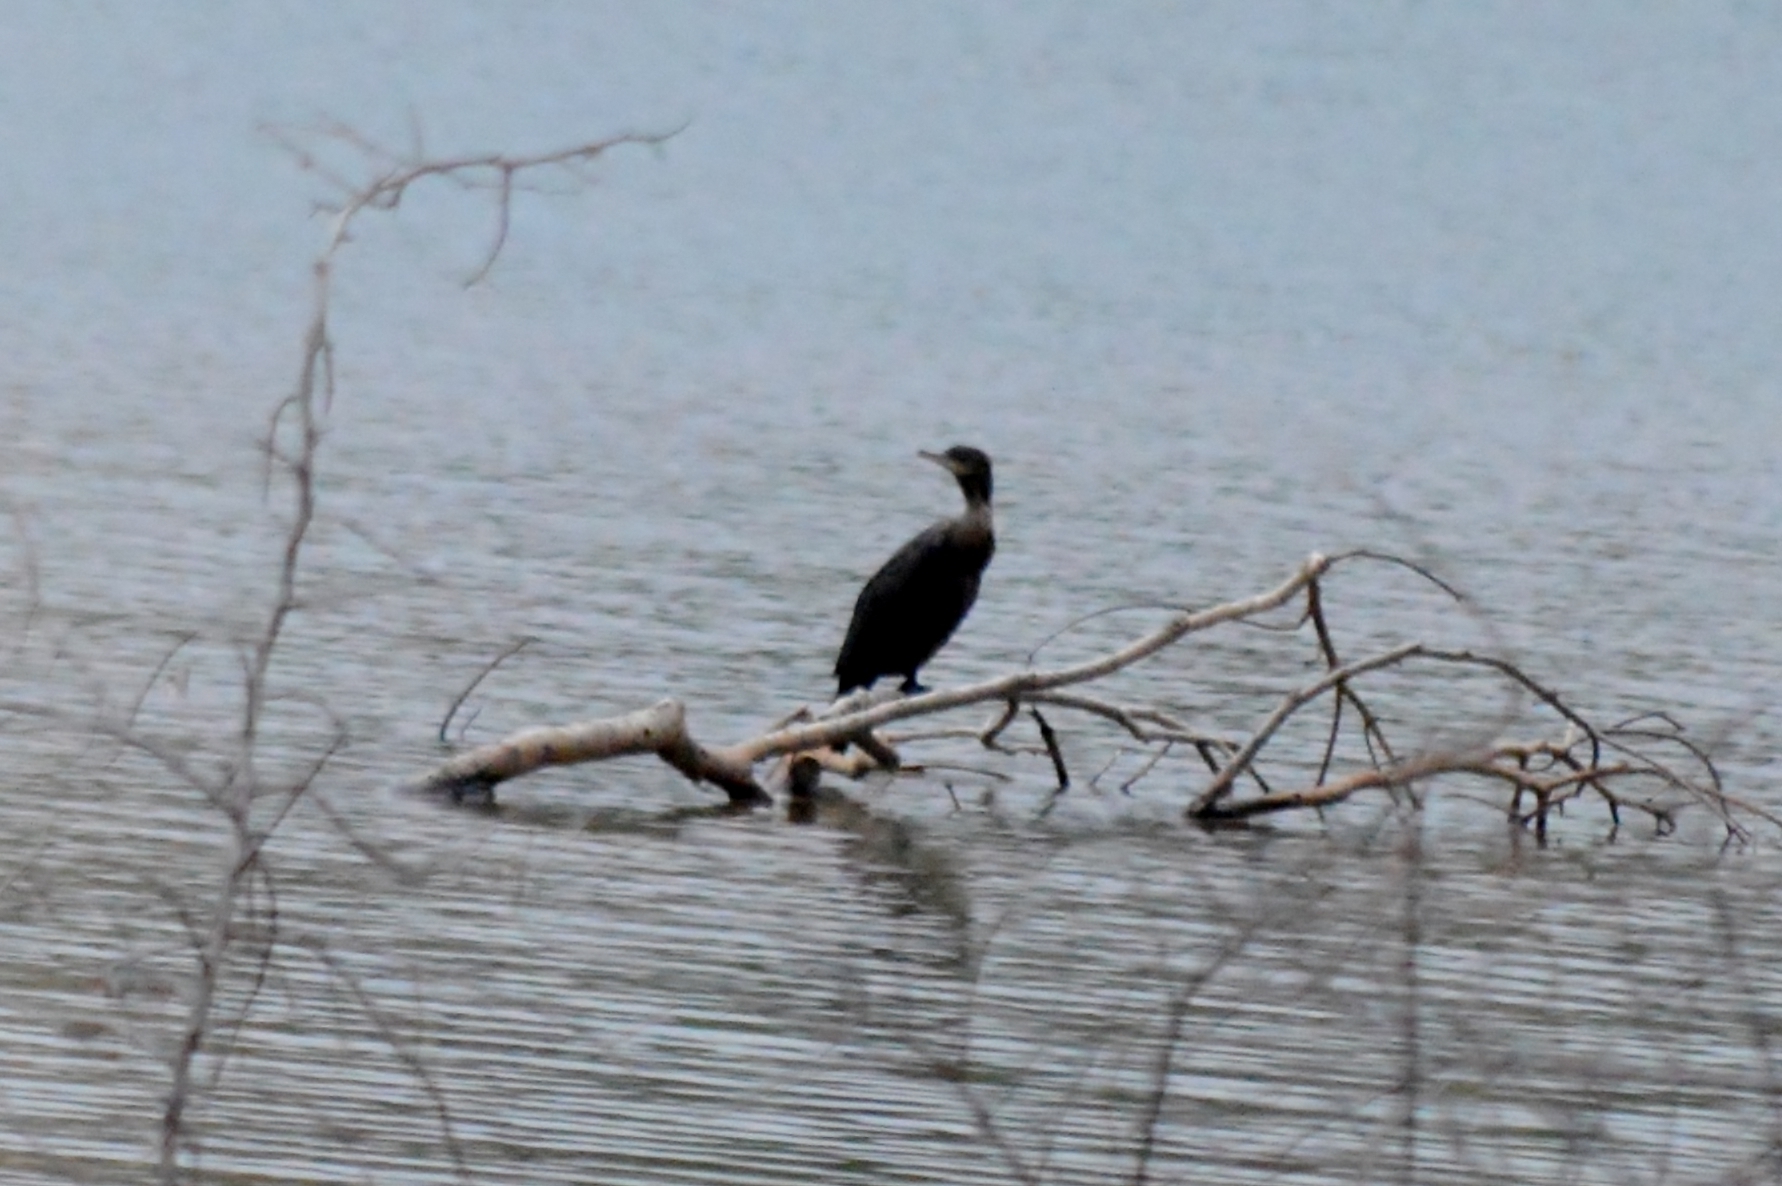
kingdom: Animalia
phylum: Chordata
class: Aves
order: Suliformes
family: Phalacrocoracidae
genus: Phalacrocorax
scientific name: Phalacrocorax brasilianus
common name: Neotropic cormorant
